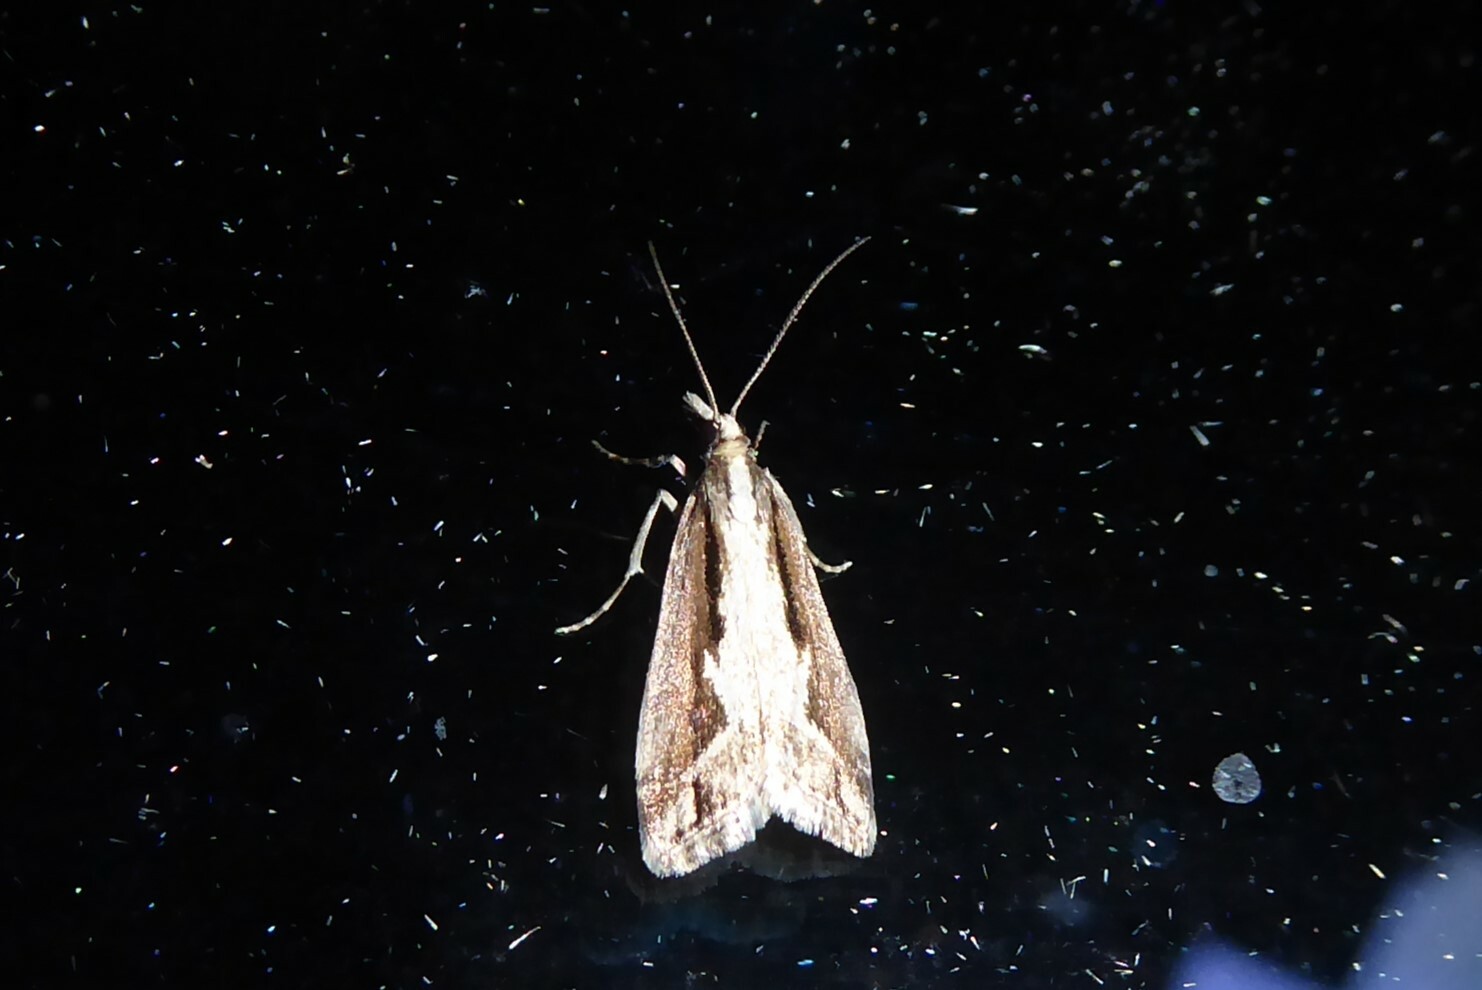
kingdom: Animalia
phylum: Arthropoda
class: Insecta
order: Lepidoptera
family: Crambidae
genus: Eudonia
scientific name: Eudonia steropaea
